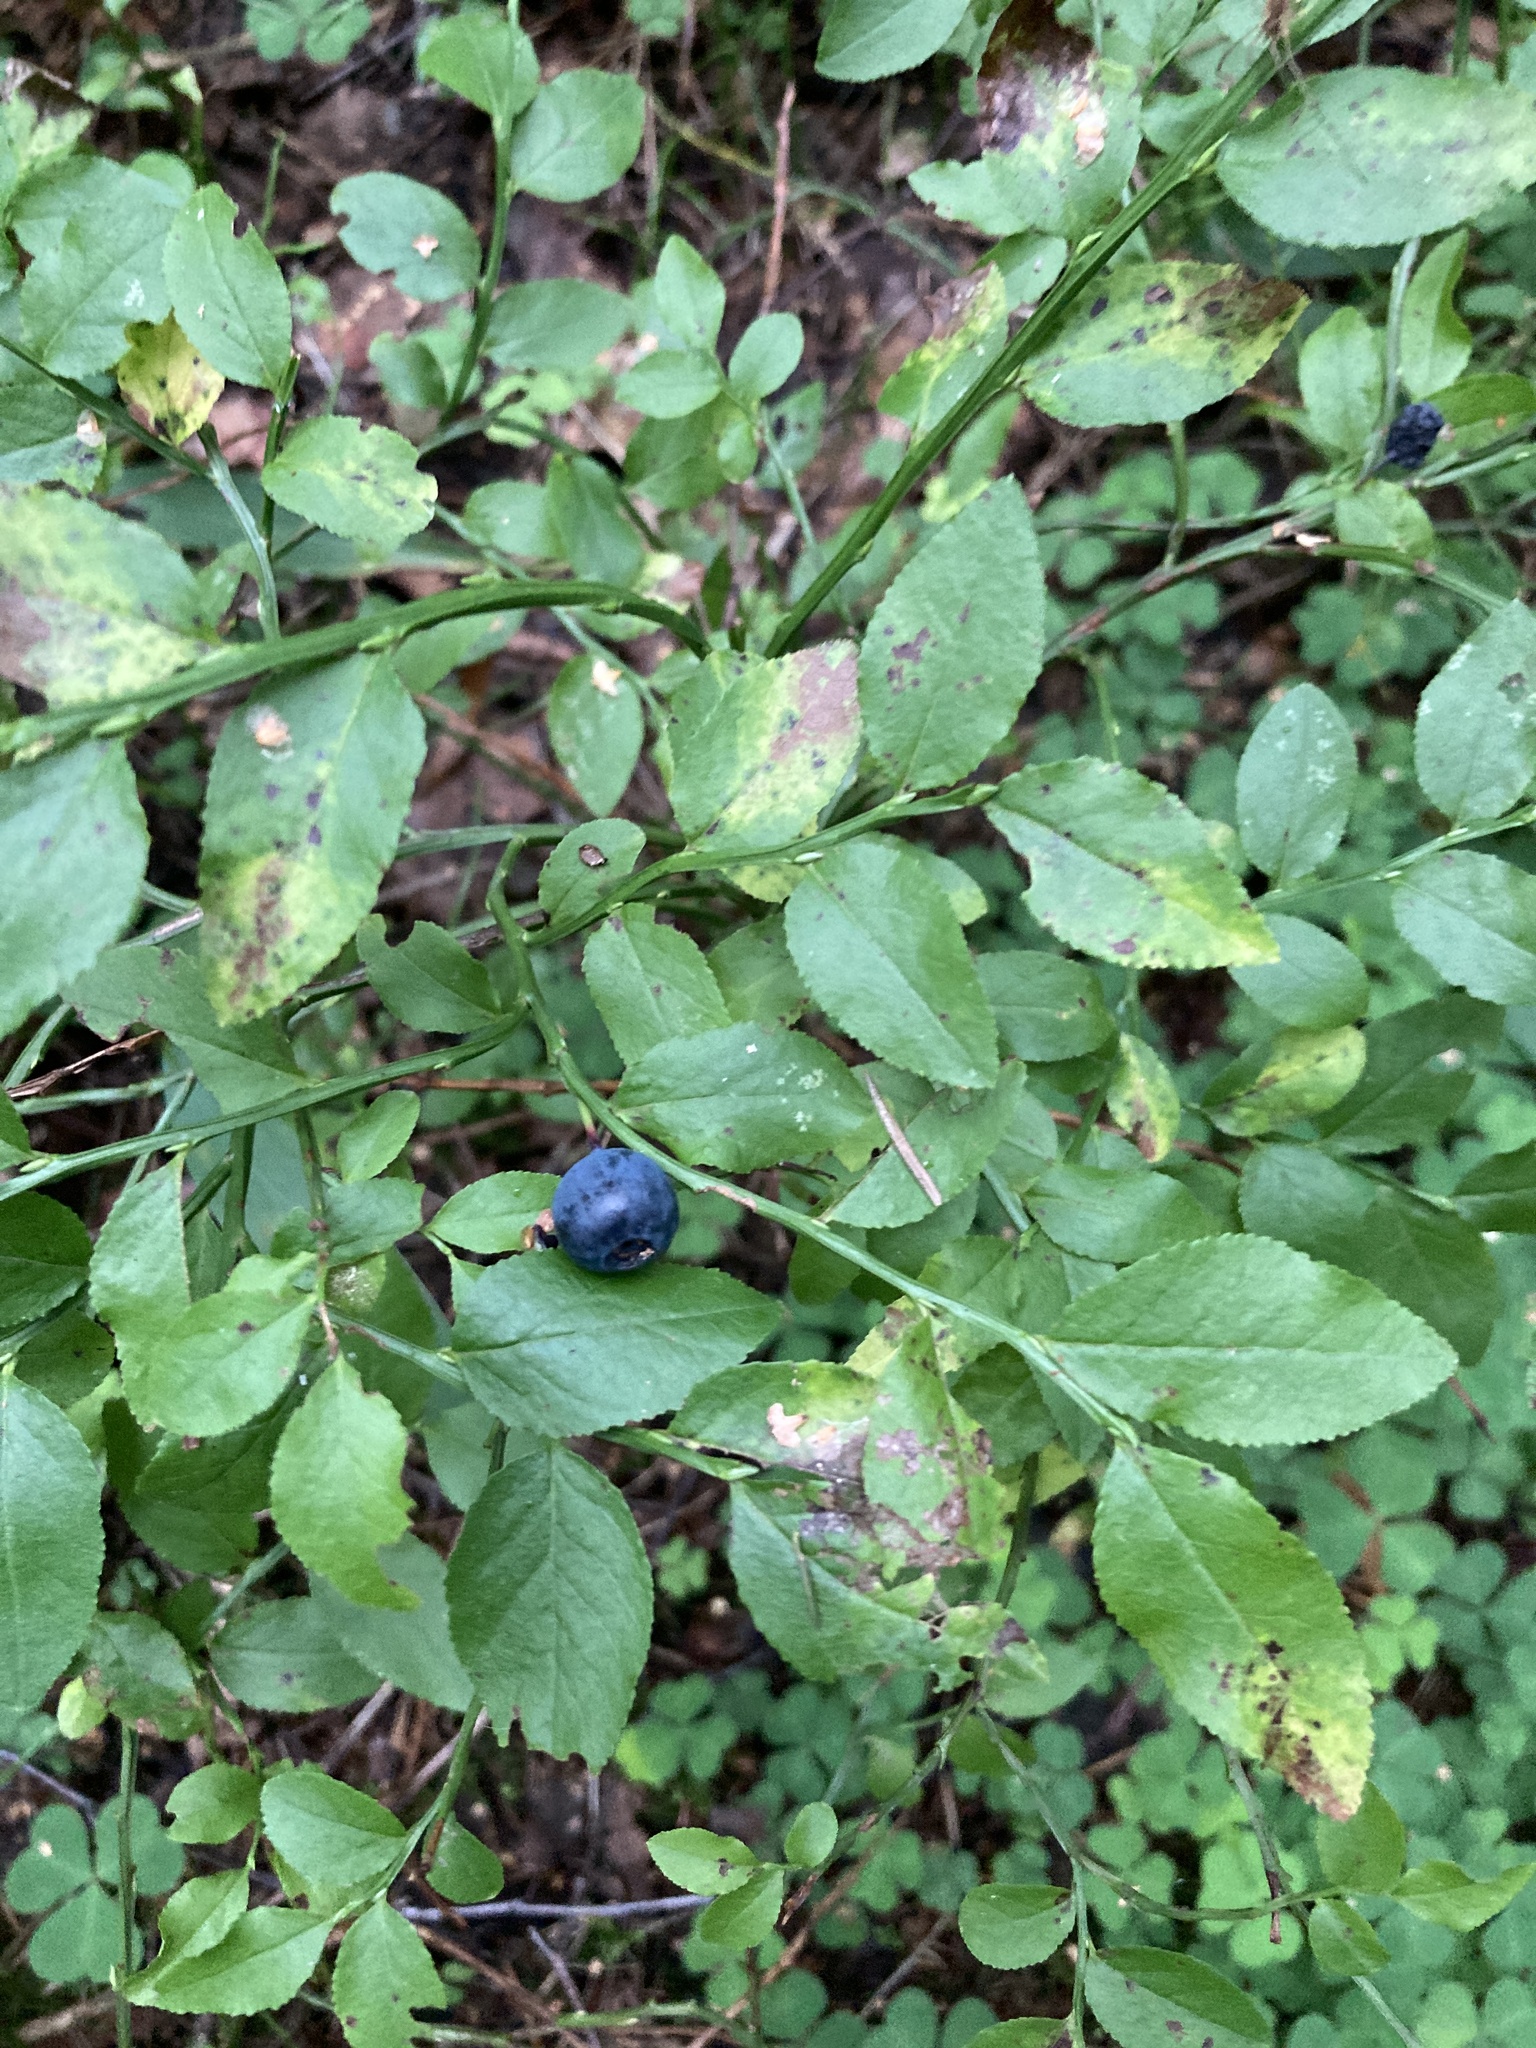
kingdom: Plantae
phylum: Tracheophyta
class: Magnoliopsida
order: Ericales
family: Ericaceae
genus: Vaccinium
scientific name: Vaccinium myrtillus
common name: Bilberry
